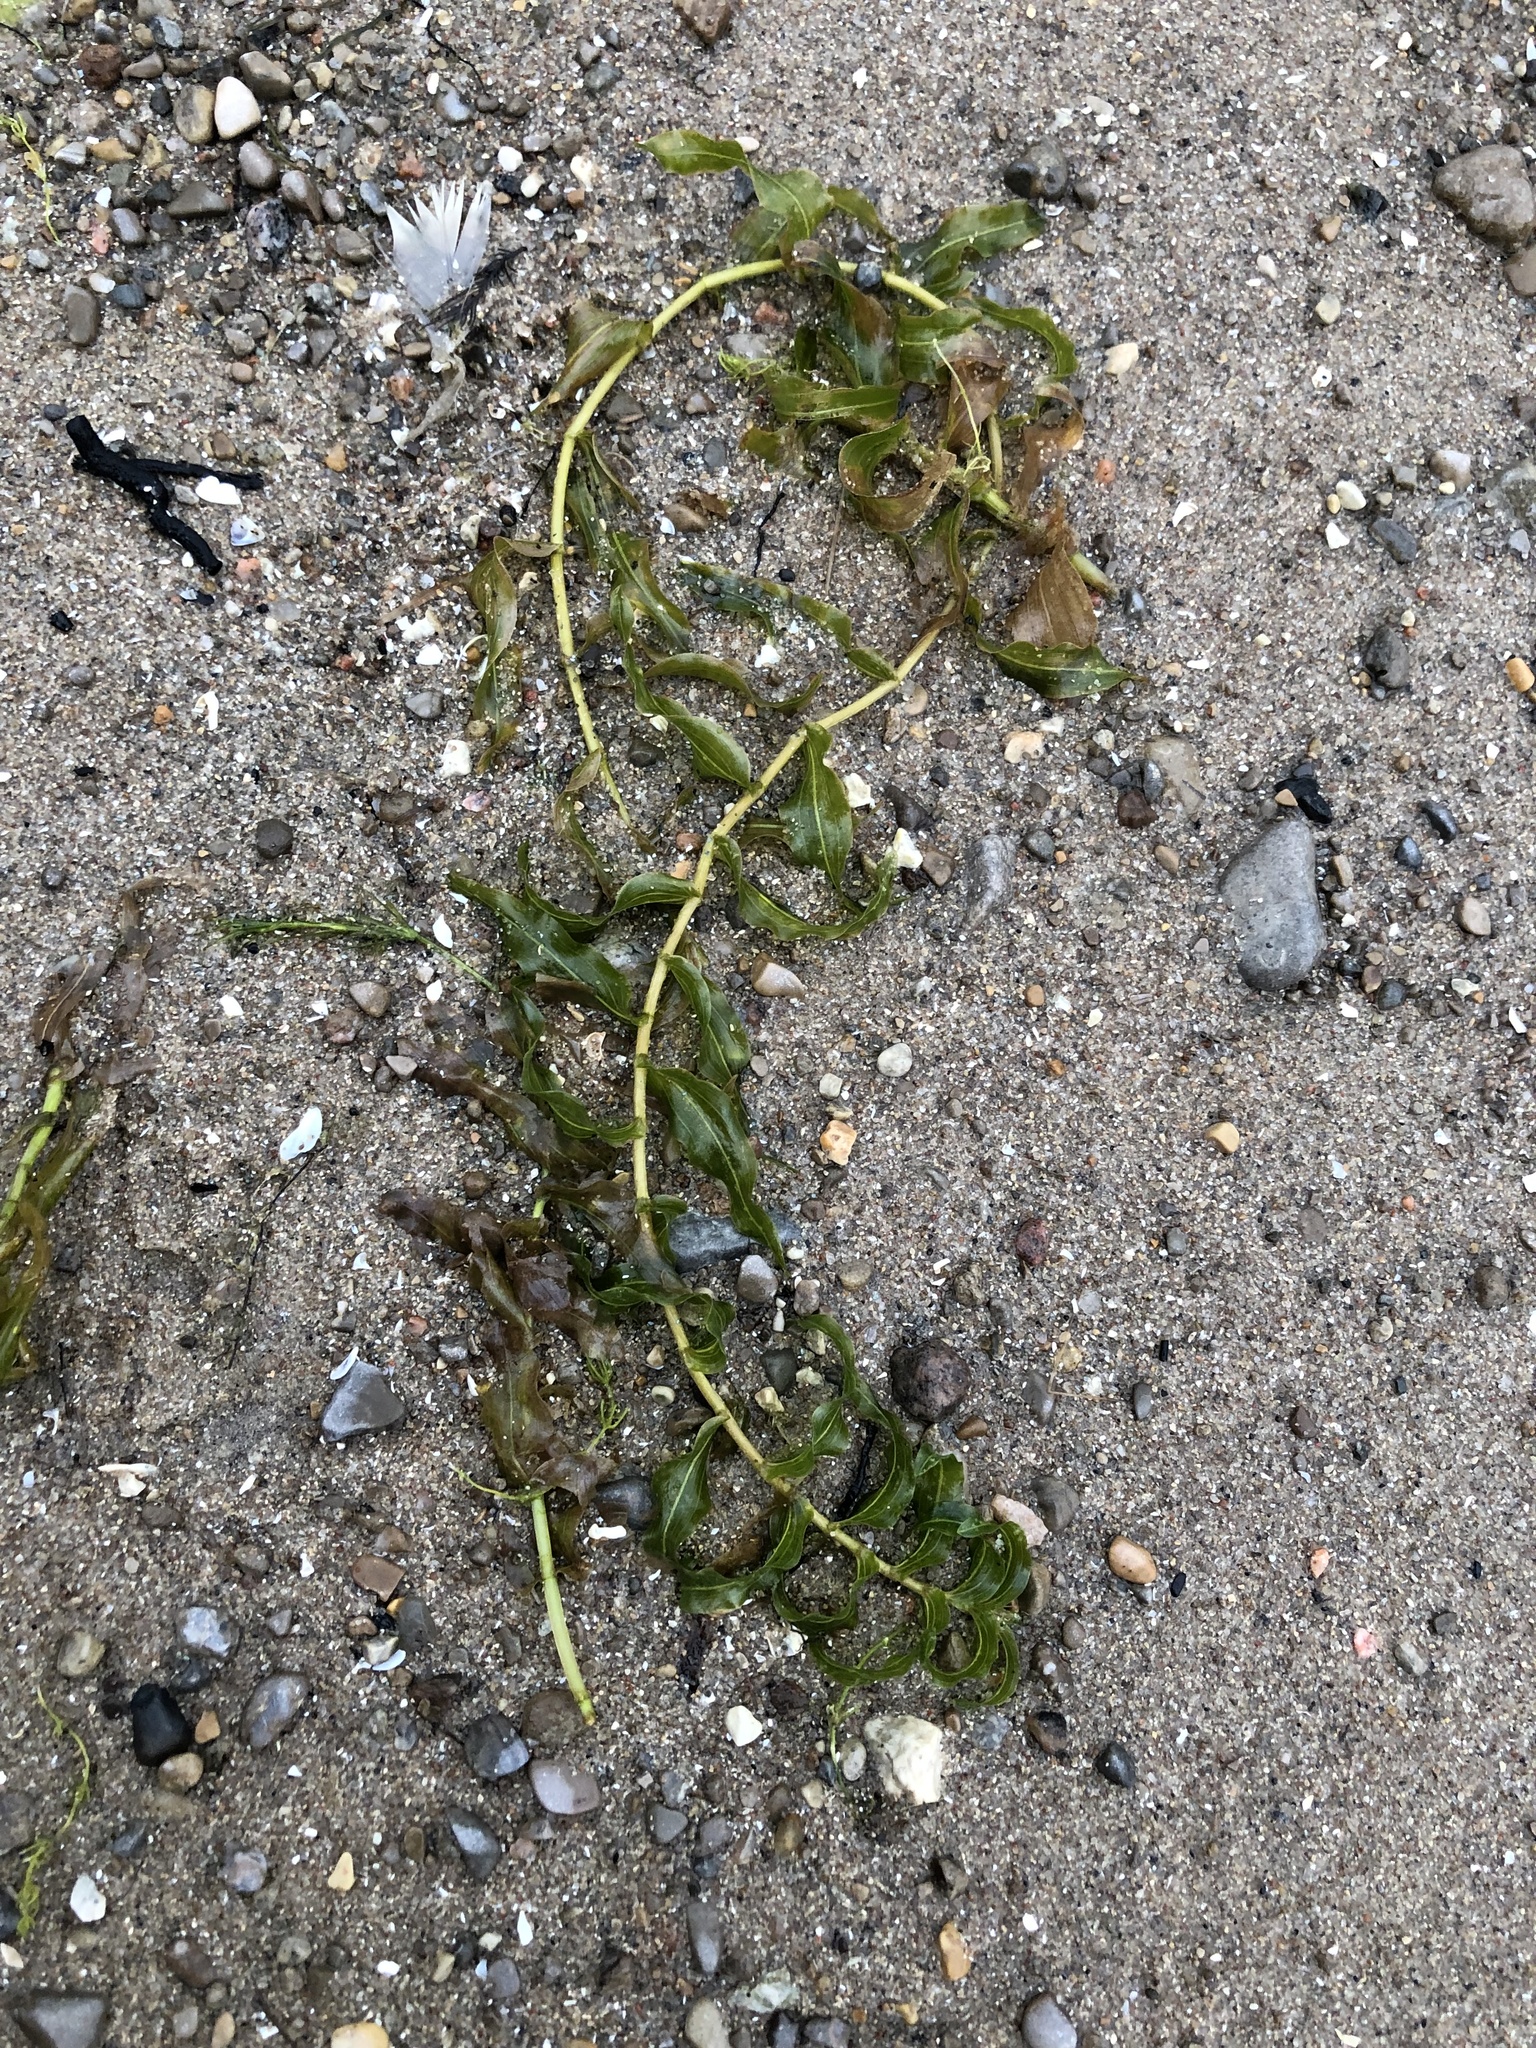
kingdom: Plantae
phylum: Tracheophyta
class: Liliopsida
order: Alismatales
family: Potamogetonaceae
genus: Potamogeton
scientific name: Potamogeton richardsonii
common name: Richardson's pondweed
